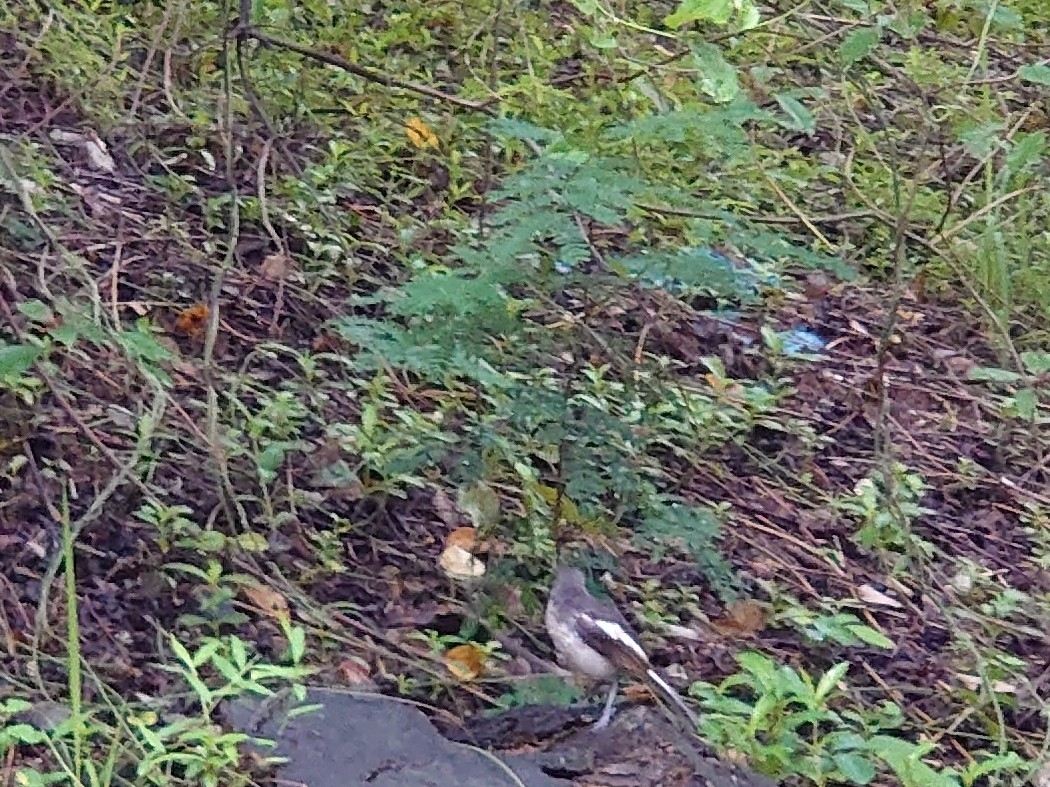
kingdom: Animalia
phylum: Chordata
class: Aves
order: Passeriformes
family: Muscicapidae
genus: Copsychus
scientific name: Copsychus saularis
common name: Oriental magpie-robin
